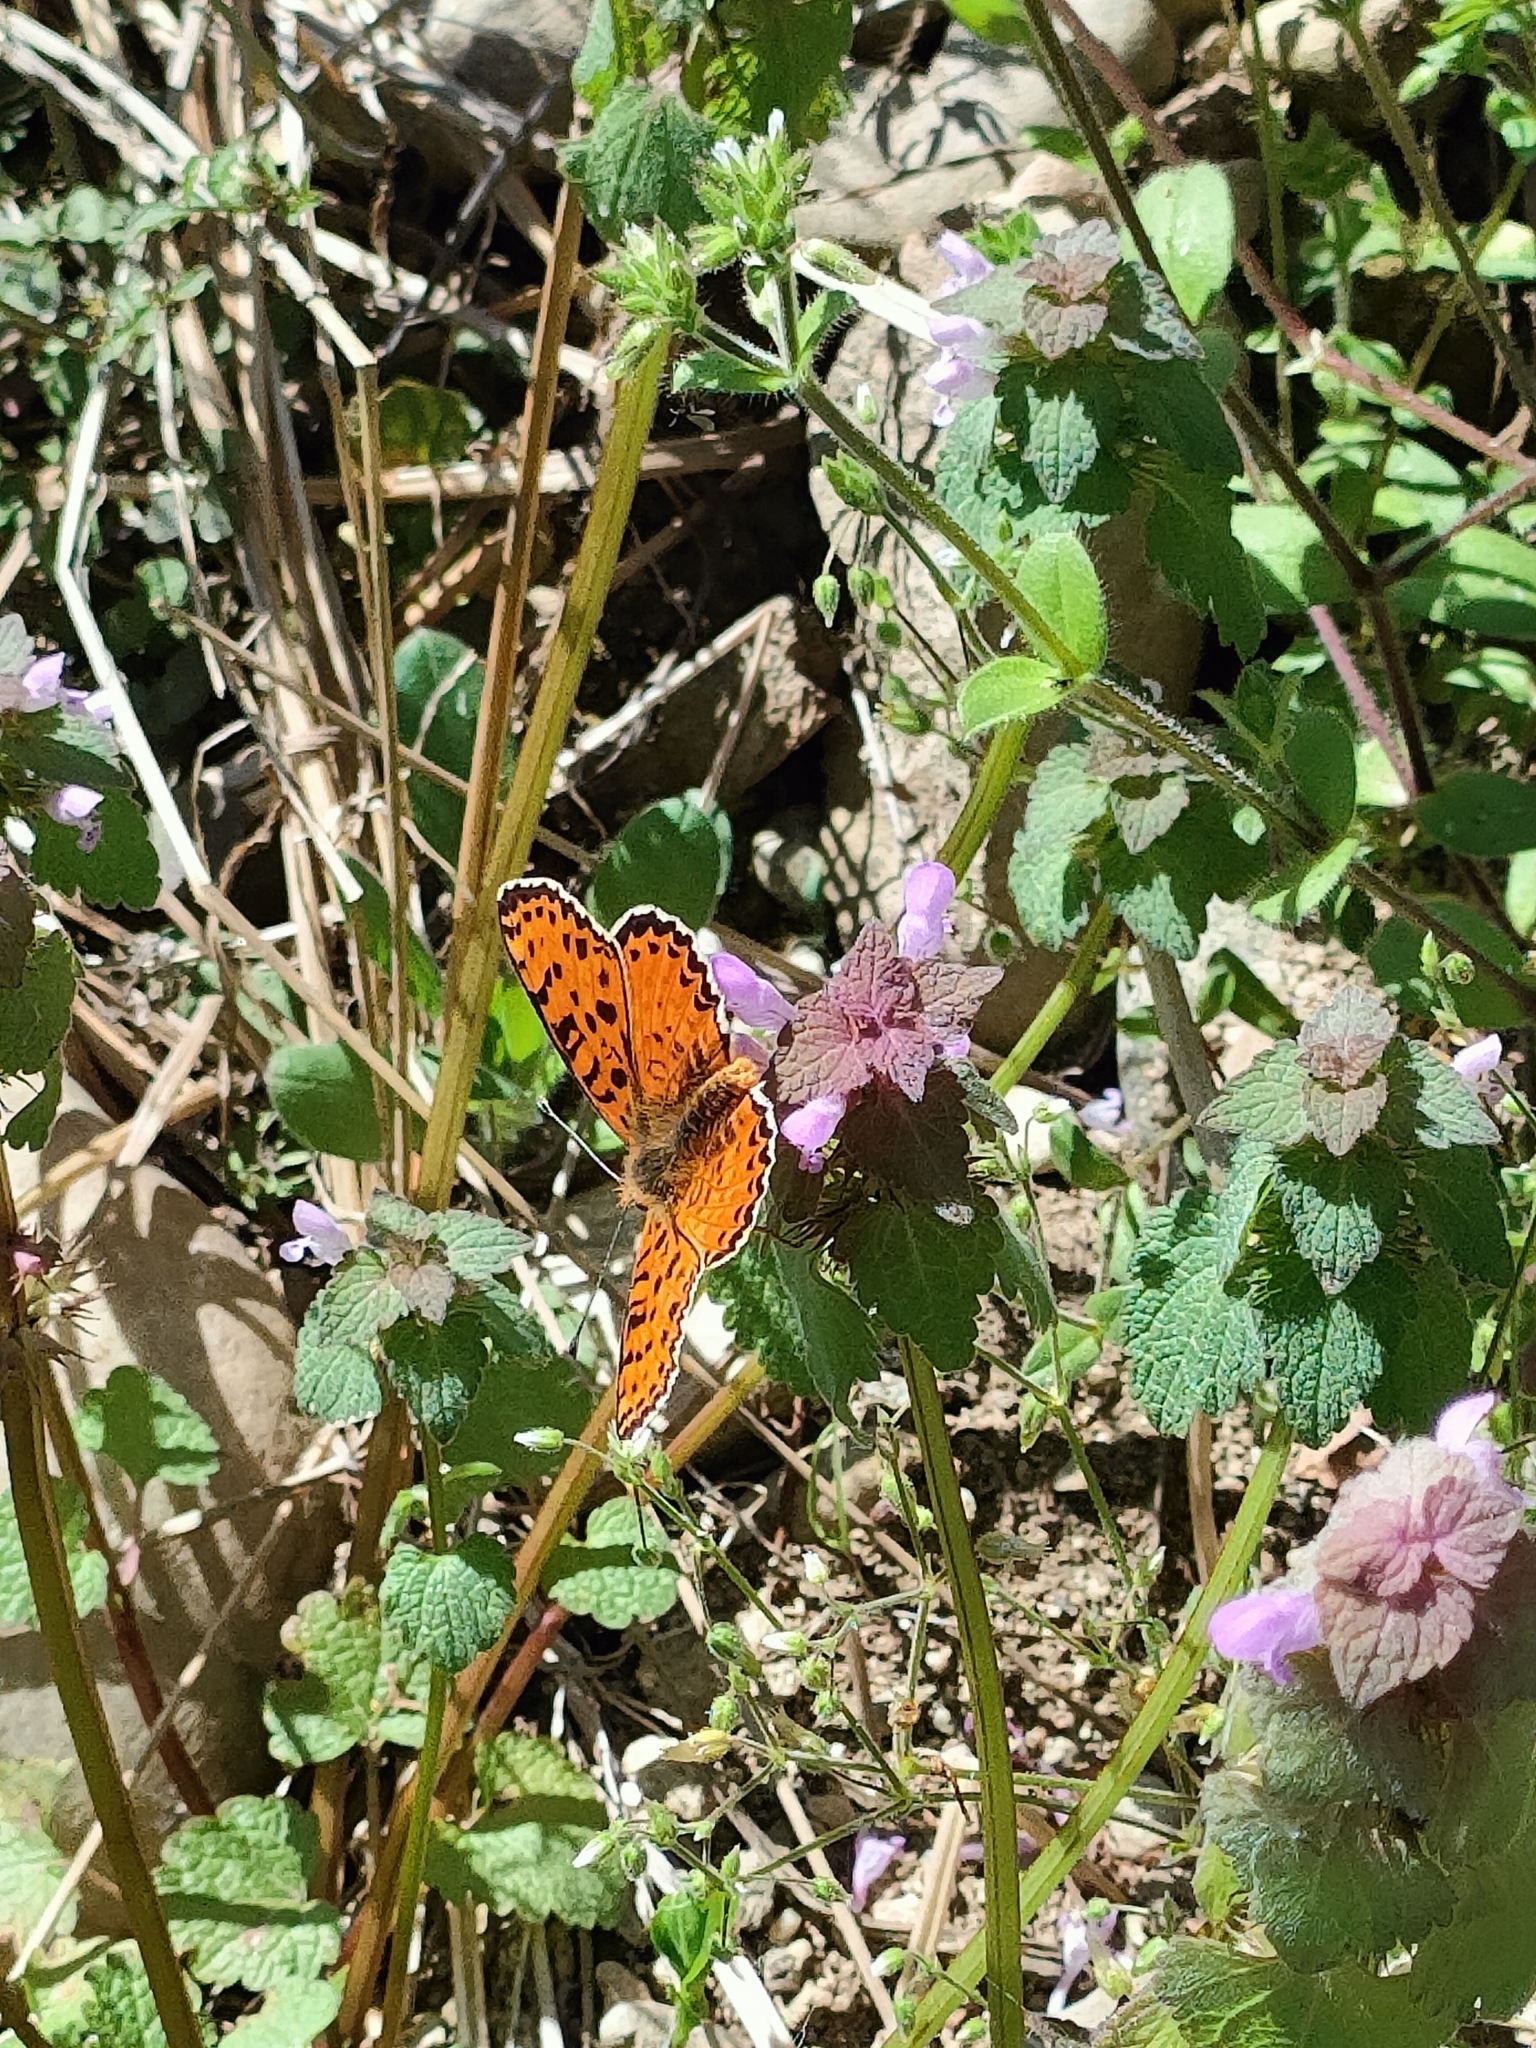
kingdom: Animalia
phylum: Arthropoda
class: Insecta
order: Lepidoptera
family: Nymphalidae
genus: Melitaea
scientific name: Melitaea didyma
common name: Spotted fritillary
